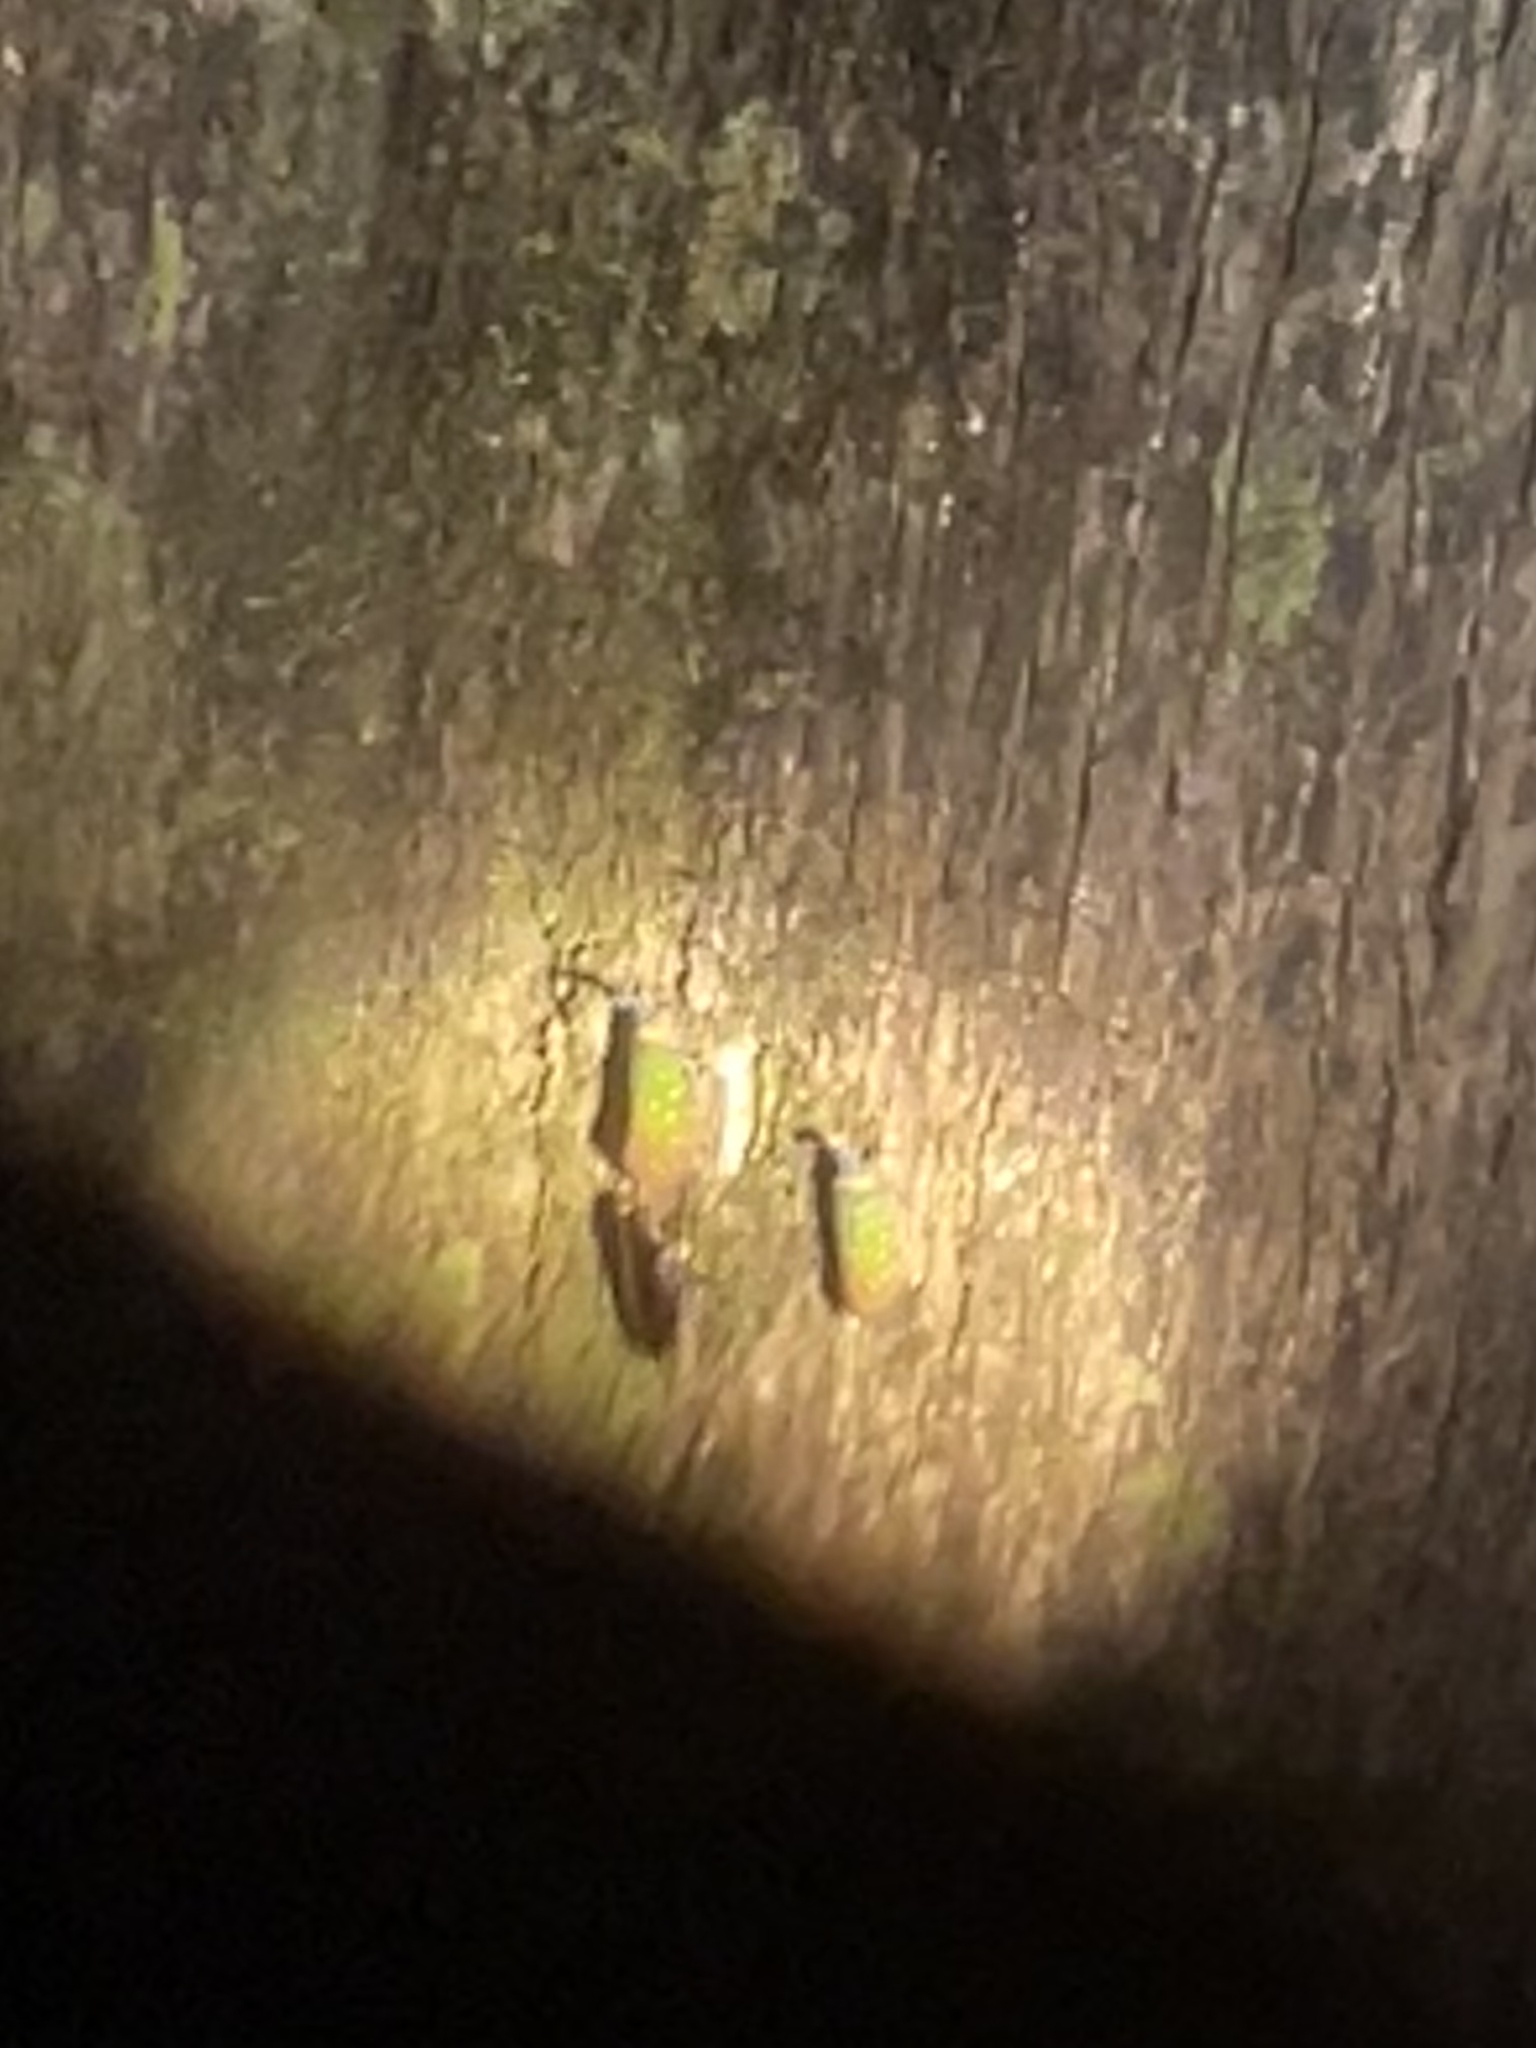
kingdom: Animalia
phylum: Arthropoda
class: Insecta
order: Hemiptera
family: Fulgoridae
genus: Pyrops
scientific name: Pyrops whiteheadi
